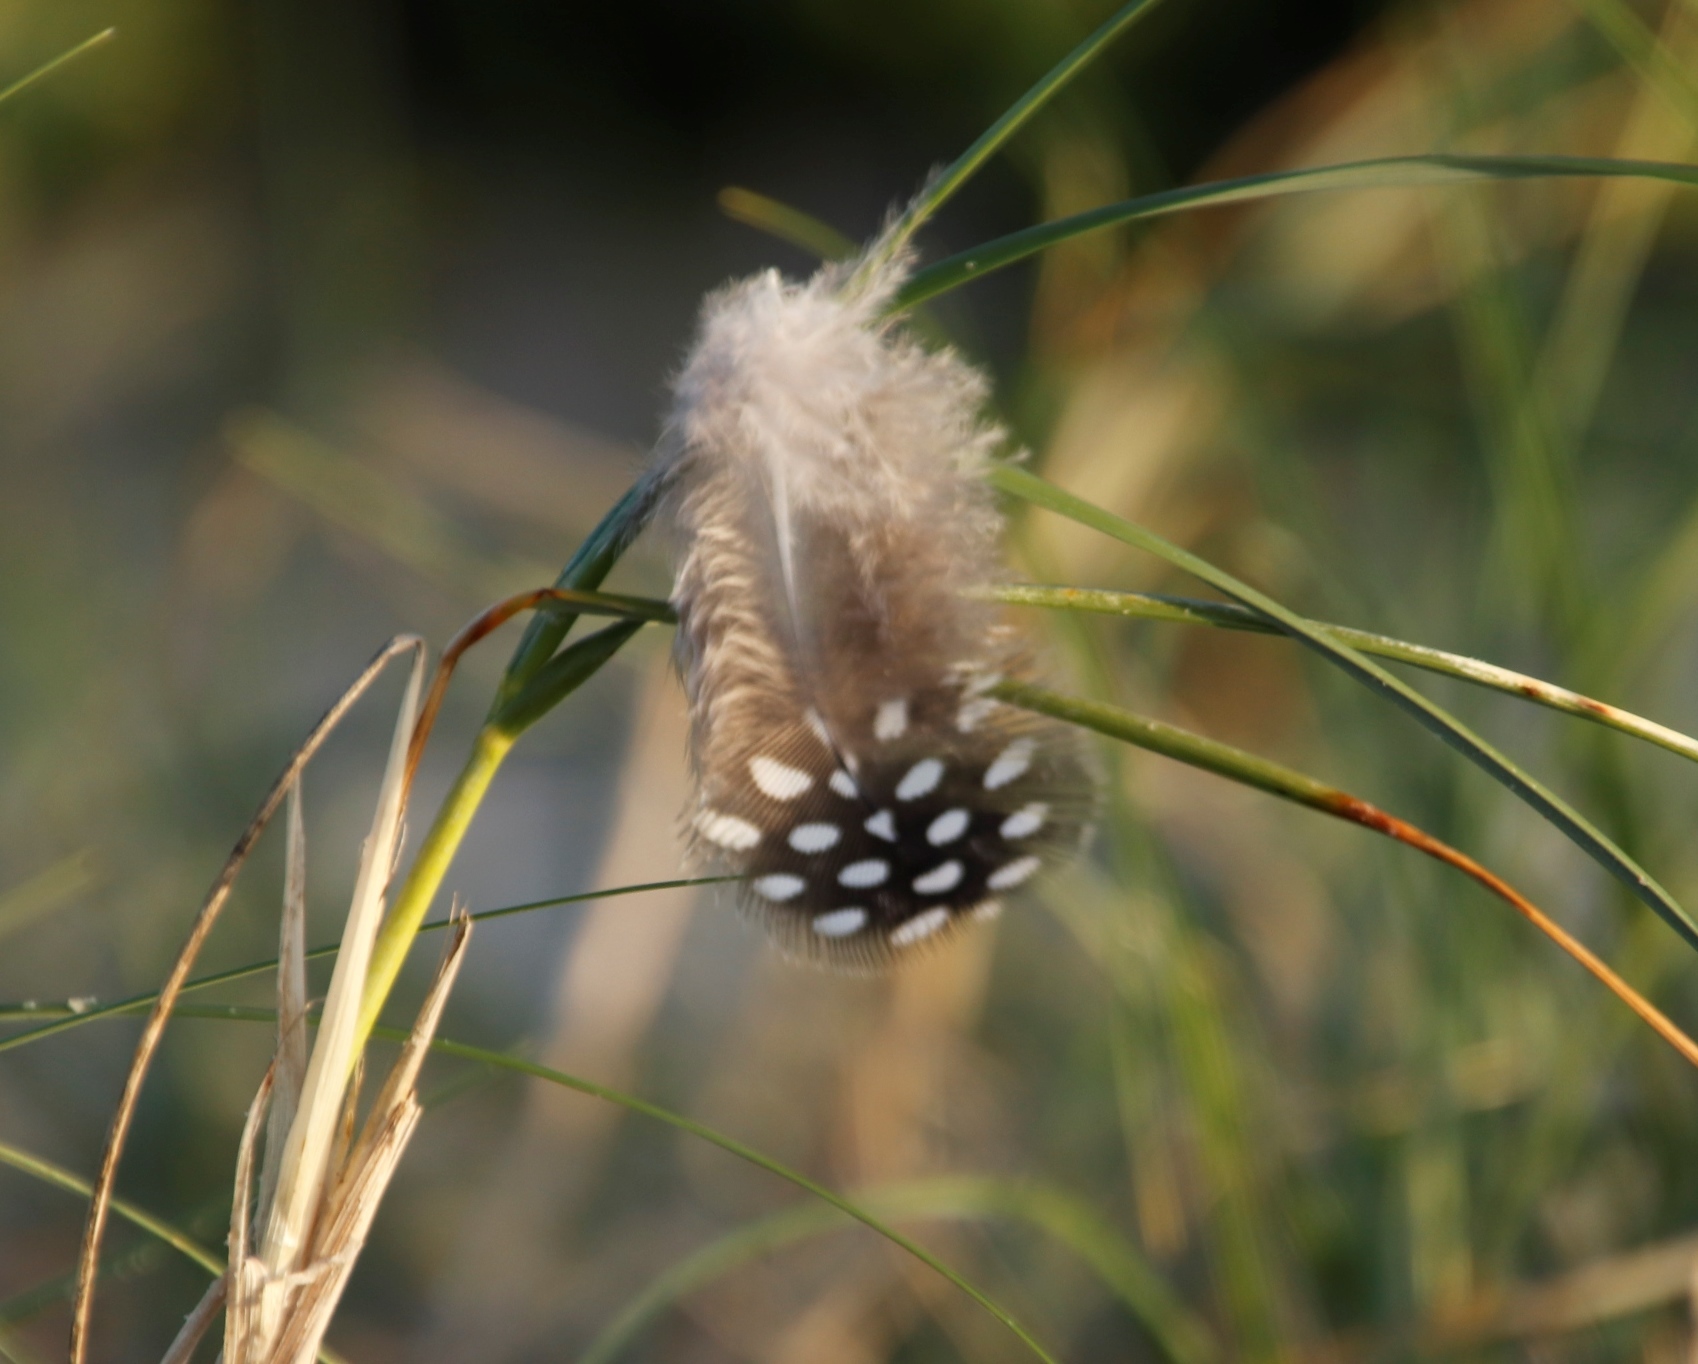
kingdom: Animalia
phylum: Chordata
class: Aves
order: Galliformes
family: Numididae
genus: Numida
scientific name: Numida meleagris
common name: Helmeted guineafowl
